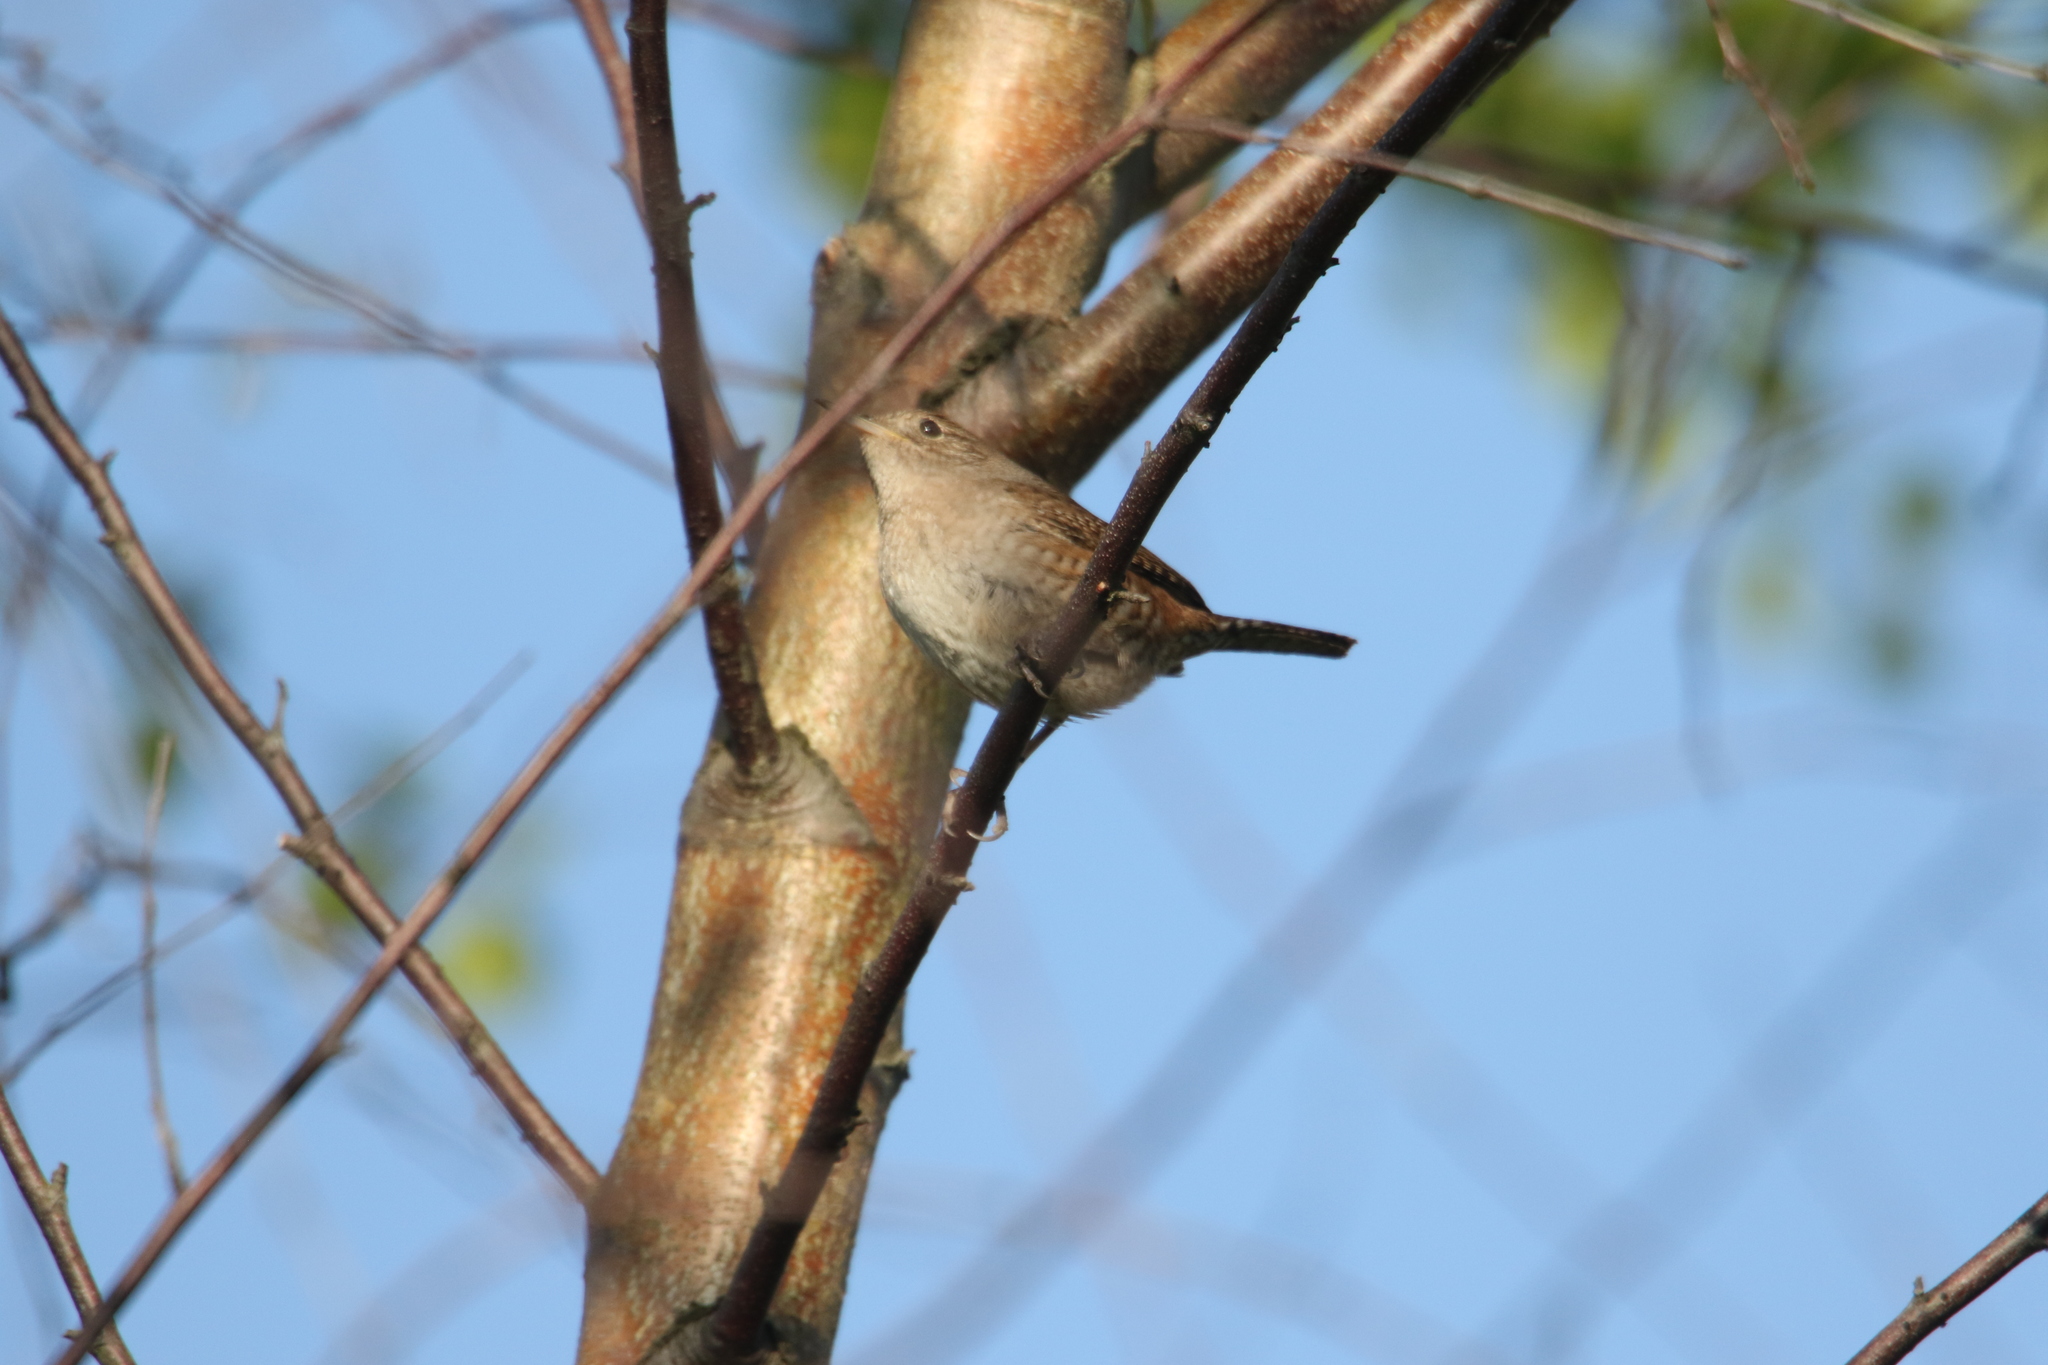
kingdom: Animalia
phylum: Chordata
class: Aves
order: Passeriformes
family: Troglodytidae
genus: Troglodytes
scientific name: Troglodytes aedon
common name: House wren
